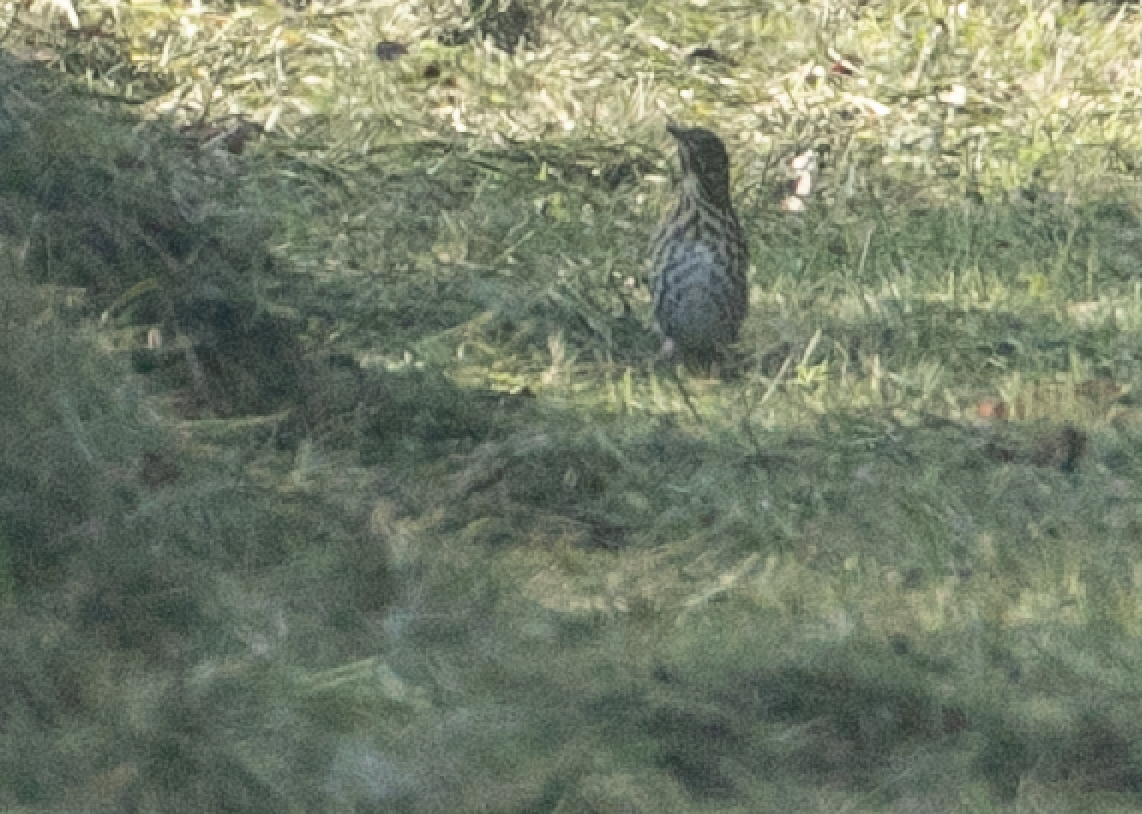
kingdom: Animalia
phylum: Chordata
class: Aves
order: Passeriformes
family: Turdidae
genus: Turdus
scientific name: Turdus philomelos
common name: Song thrush
